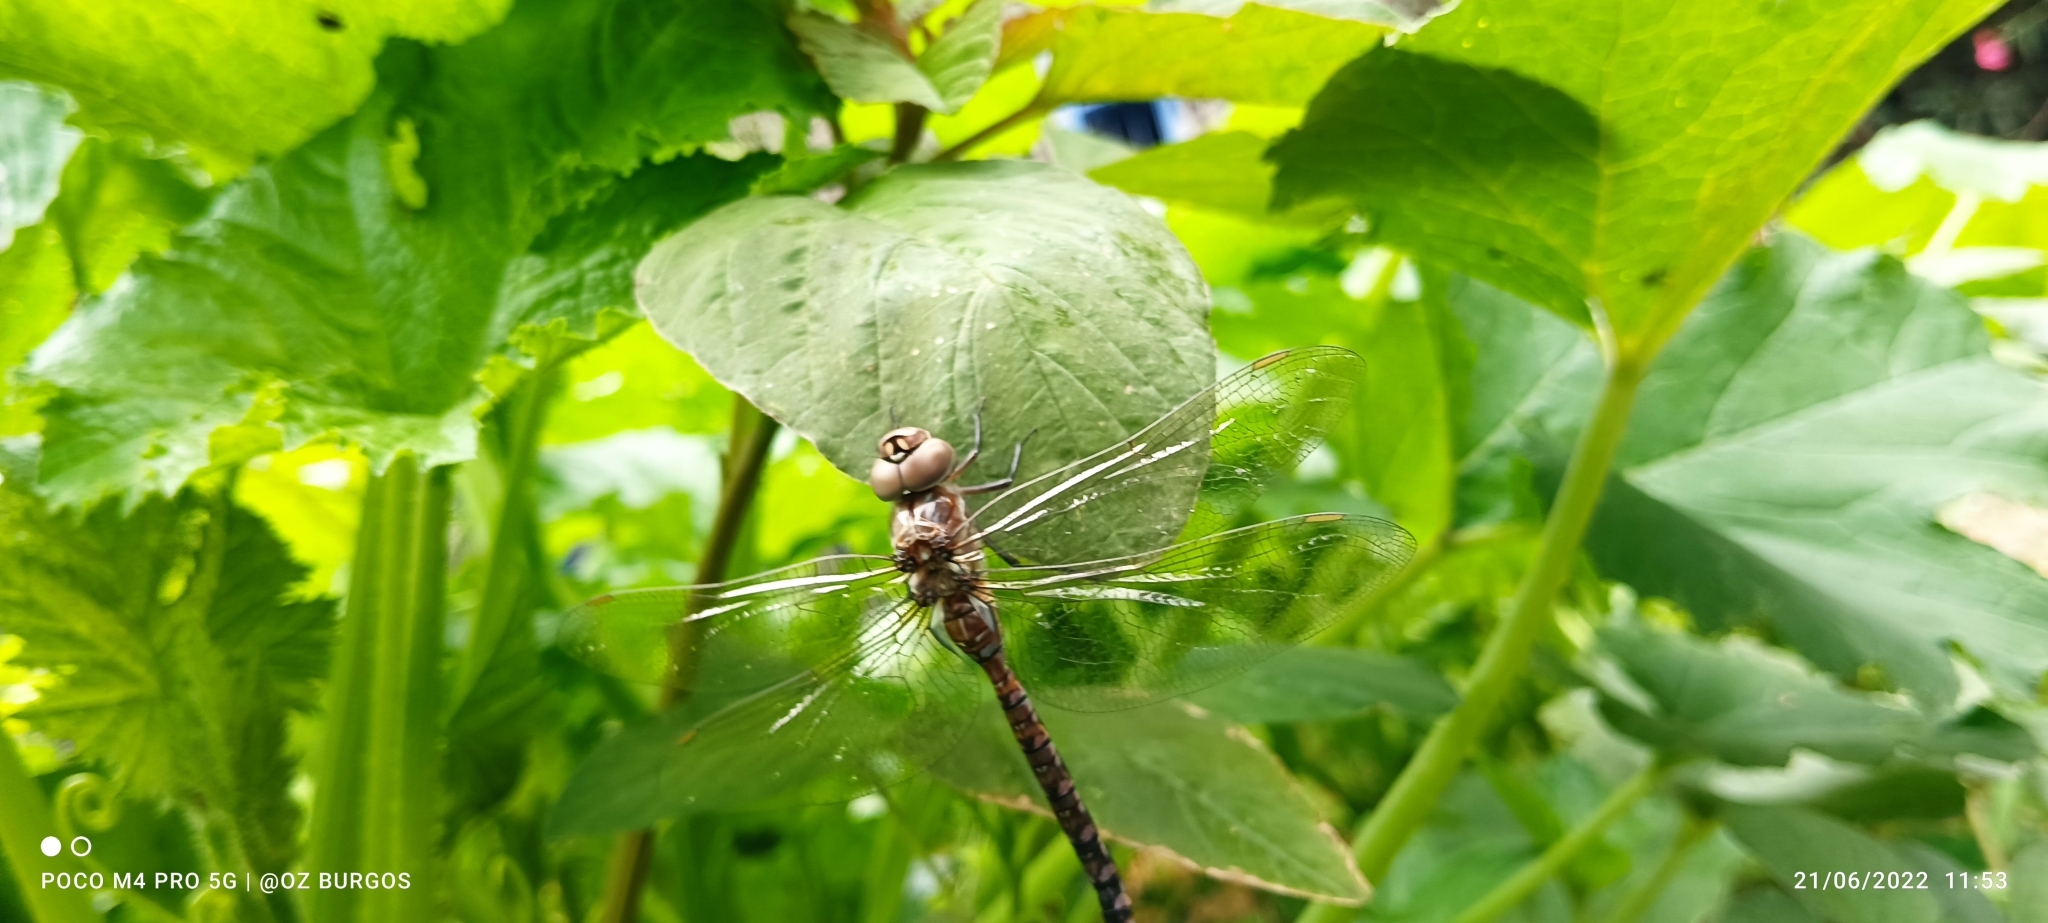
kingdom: Animalia
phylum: Arthropoda
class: Insecta
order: Odonata
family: Aeshnidae
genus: Rhionaeschna
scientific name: Rhionaeschna multicolor
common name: Blue-eyed darner
